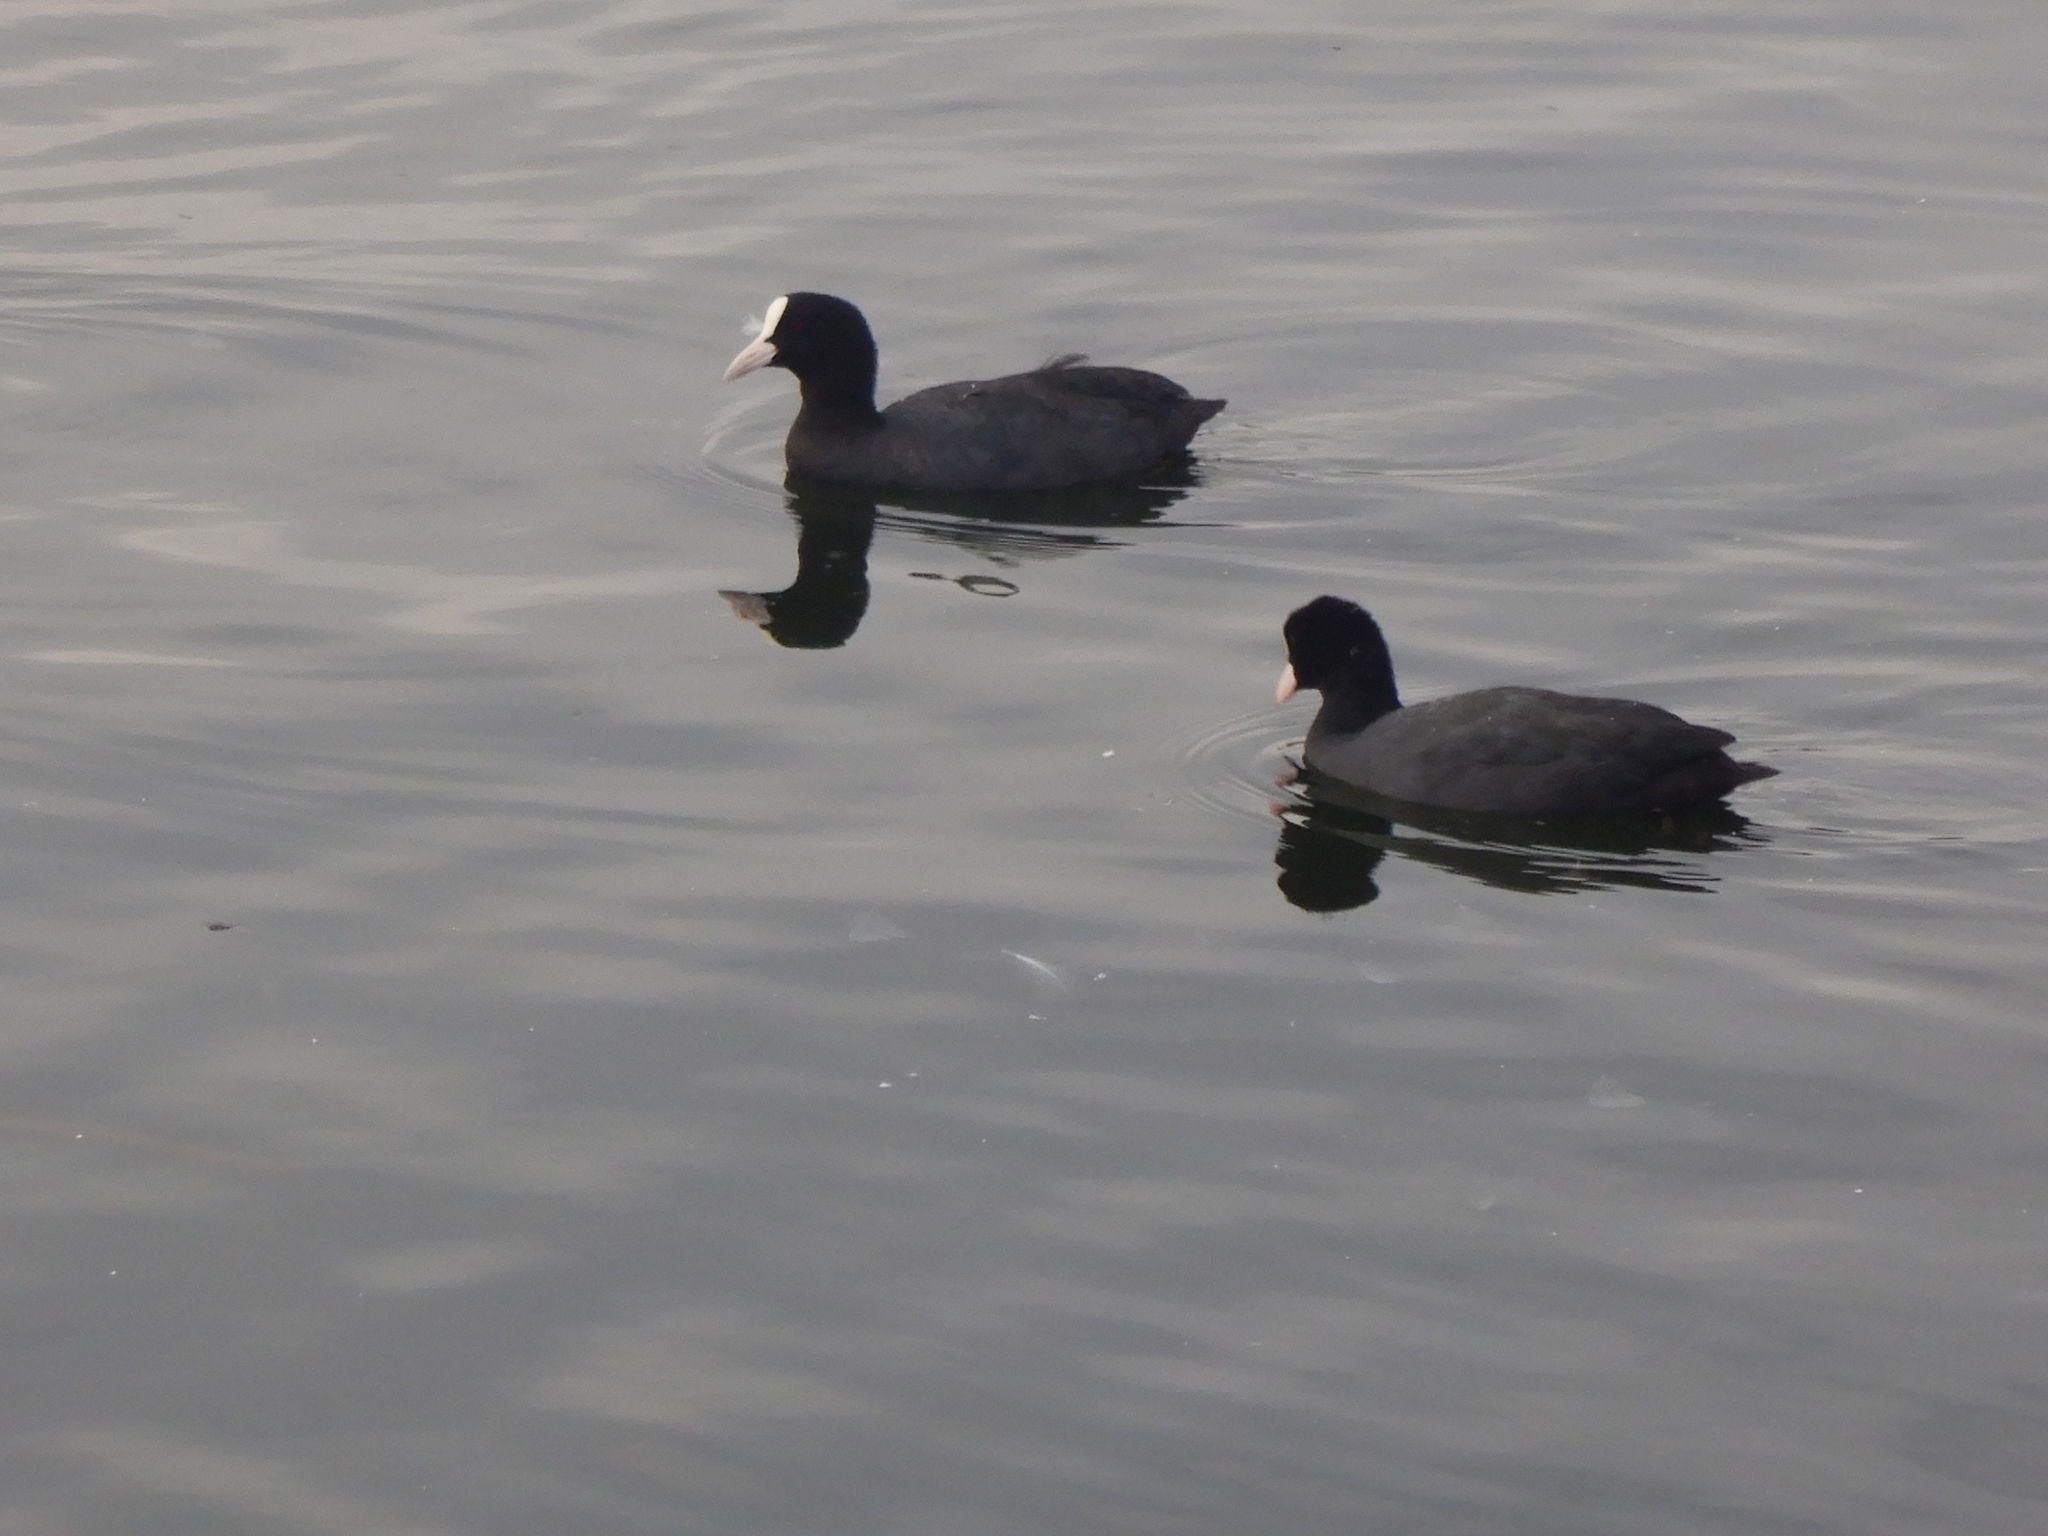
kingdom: Animalia
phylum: Chordata
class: Aves
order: Gruiformes
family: Rallidae
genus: Fulica
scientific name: Fulica atra
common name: Eurasian coot
